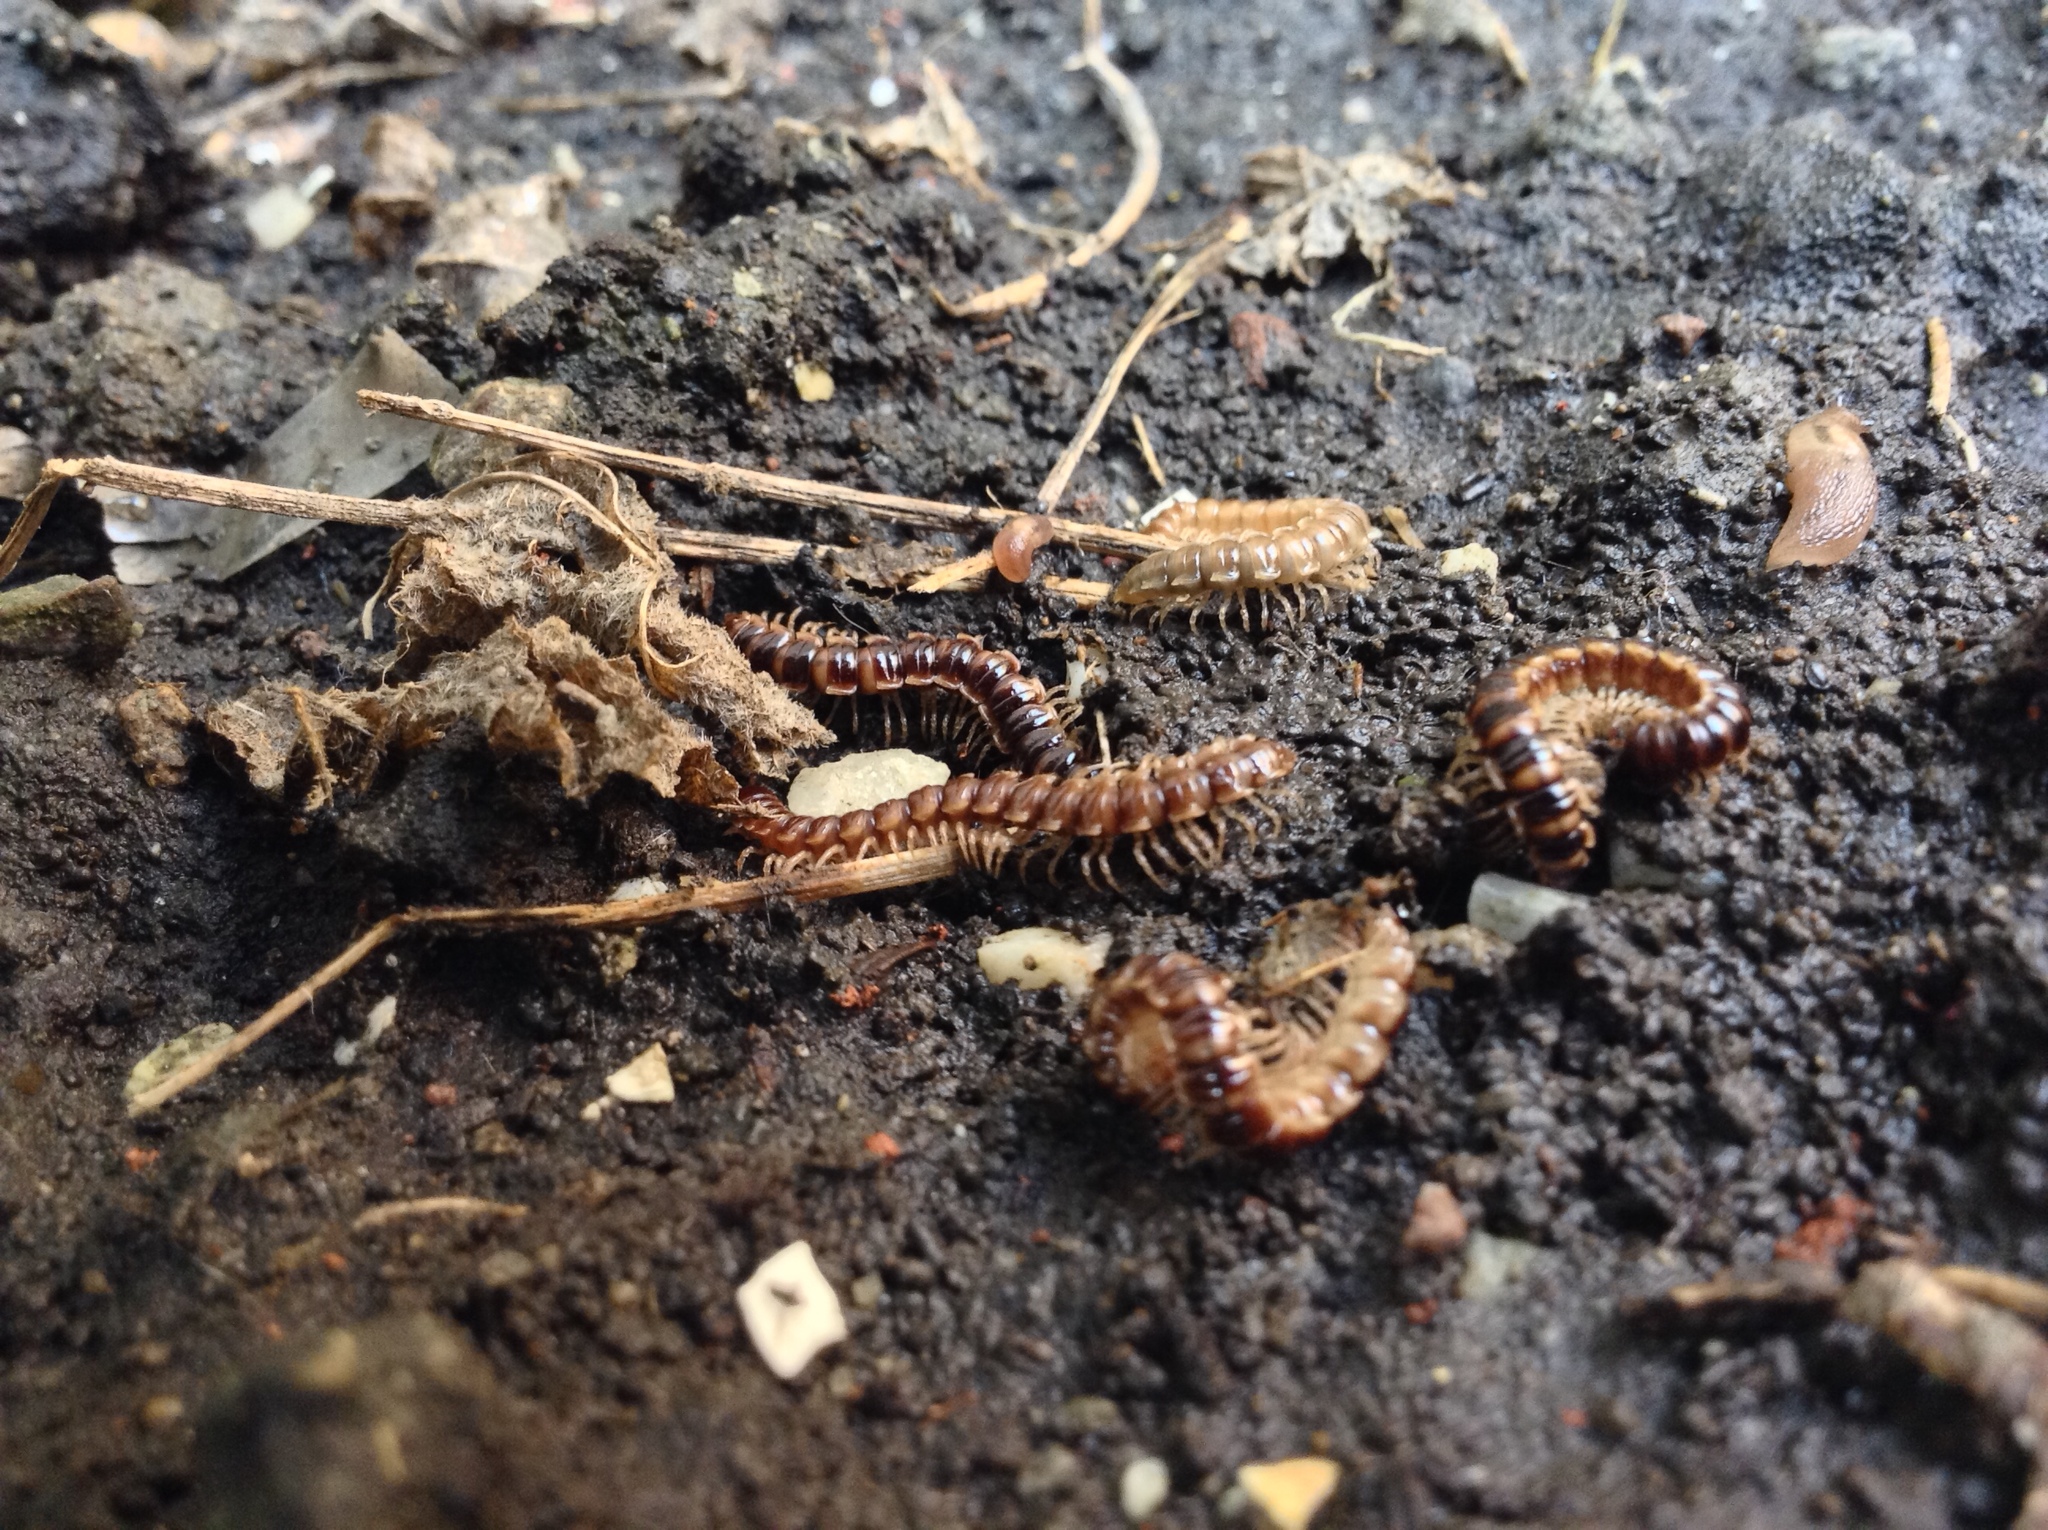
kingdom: Animalia
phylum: Arthropoda
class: Diplopoda
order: Polydesmida
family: Paradoxosomatidae
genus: Oxidus
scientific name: Oxidus gracilis
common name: Greenhouse millipede
